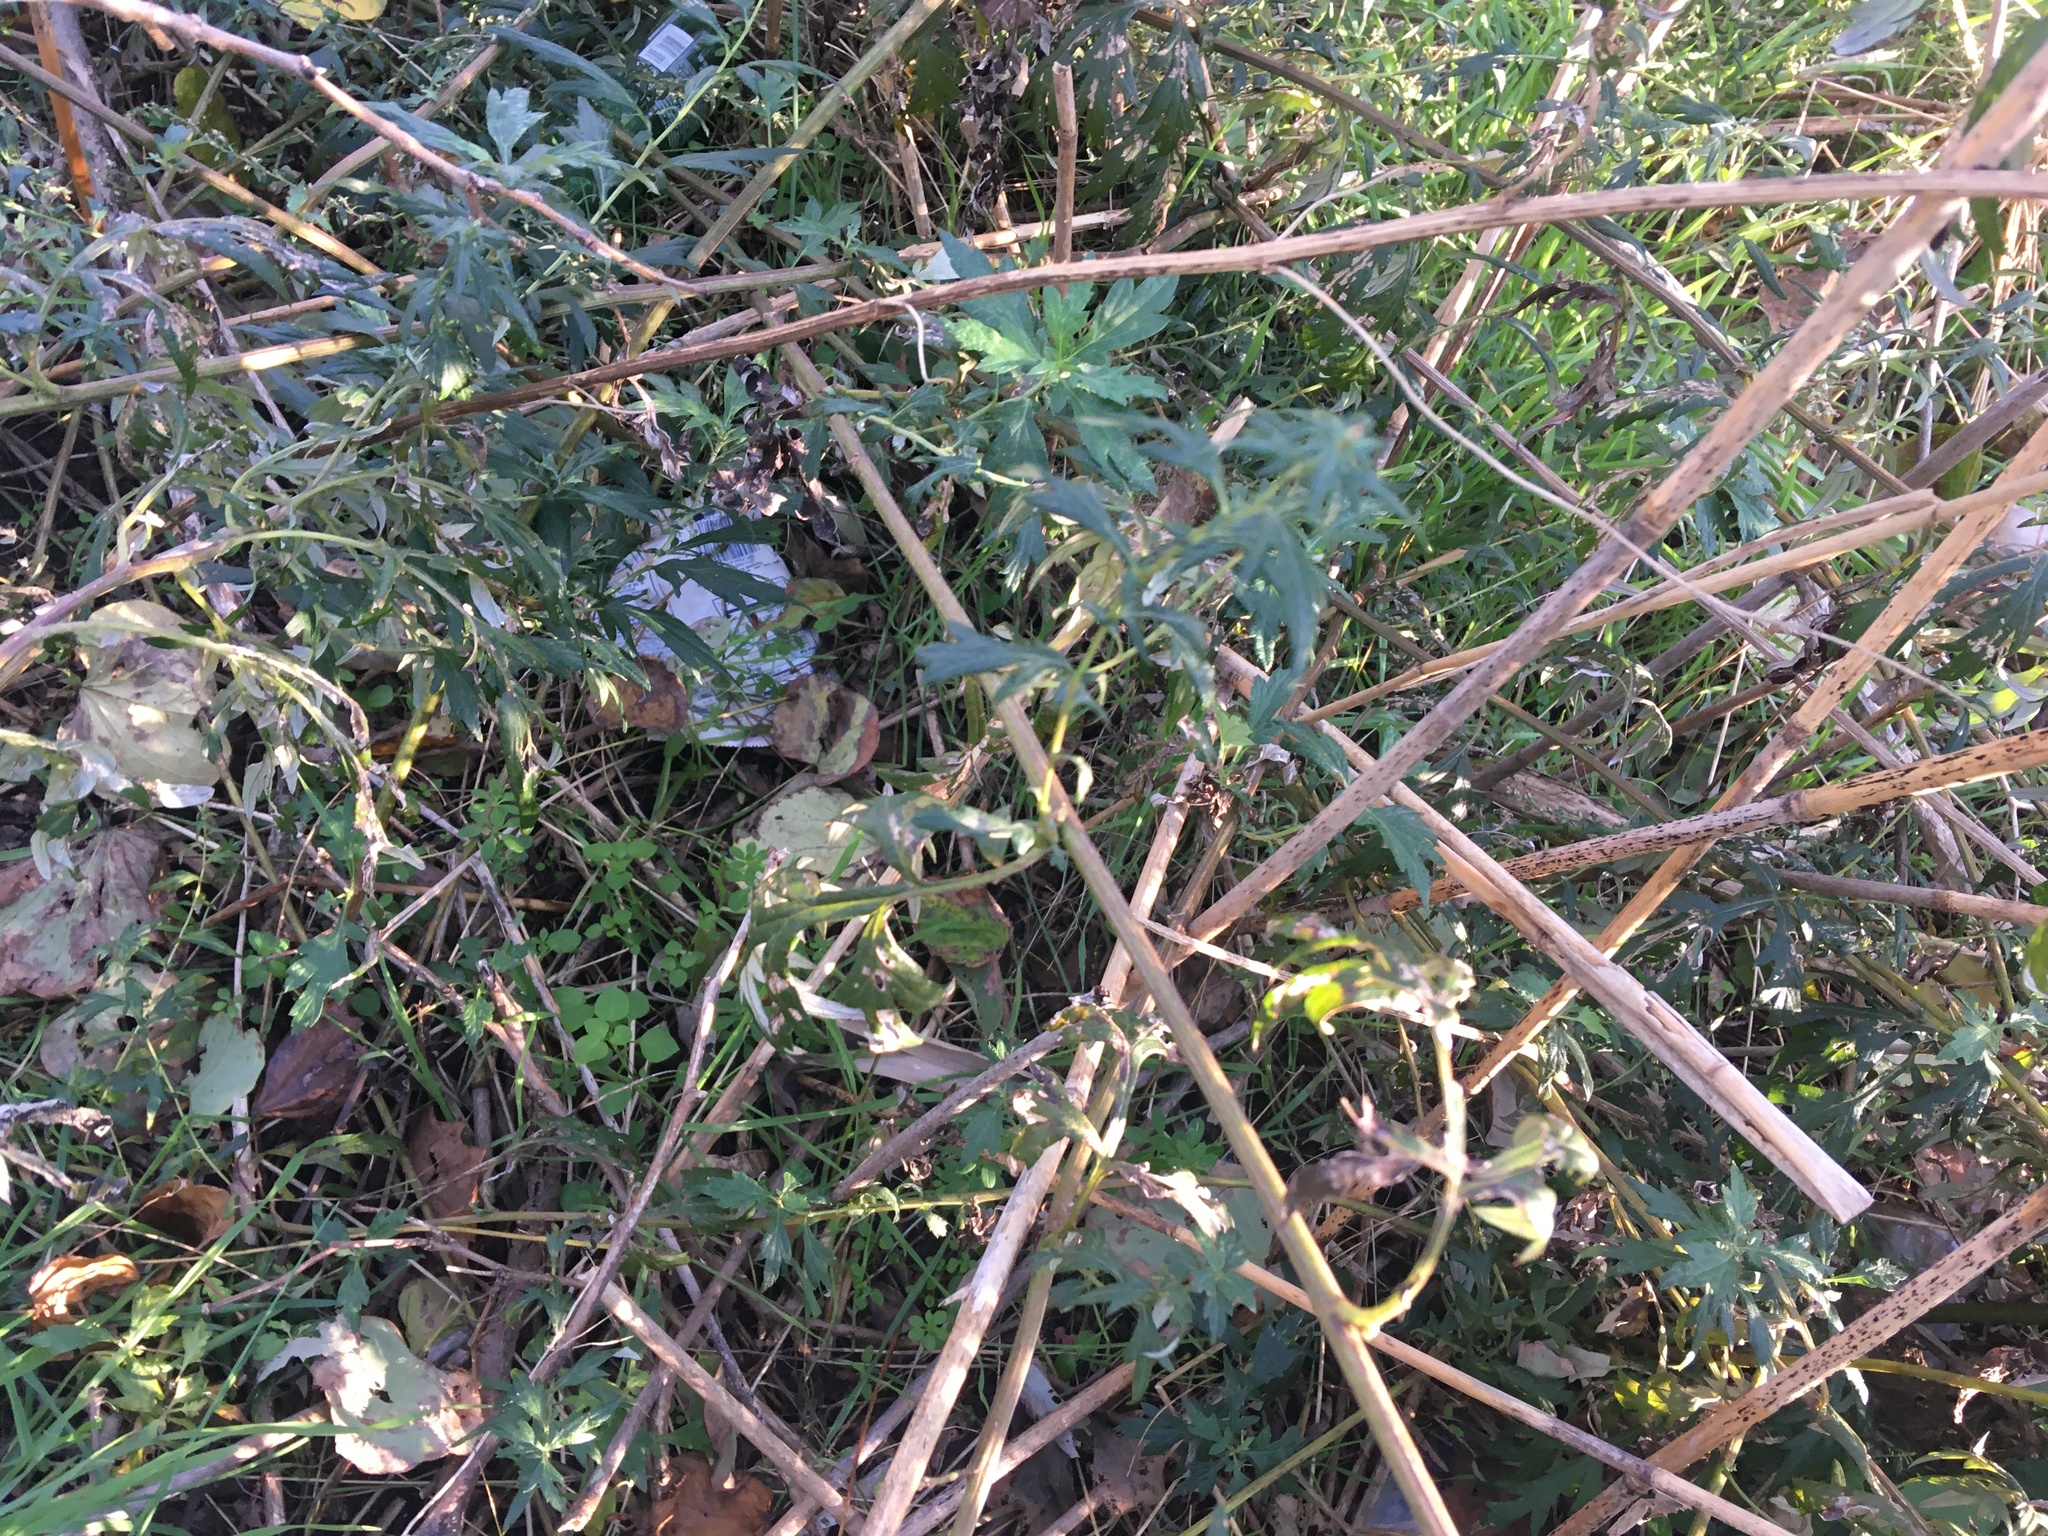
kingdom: Plantae
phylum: Tracheophyta
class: Magnoliopsida
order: Asterales
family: Asteraceae
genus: Artemisia
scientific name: Artemisia vulgaris
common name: Mugwort
